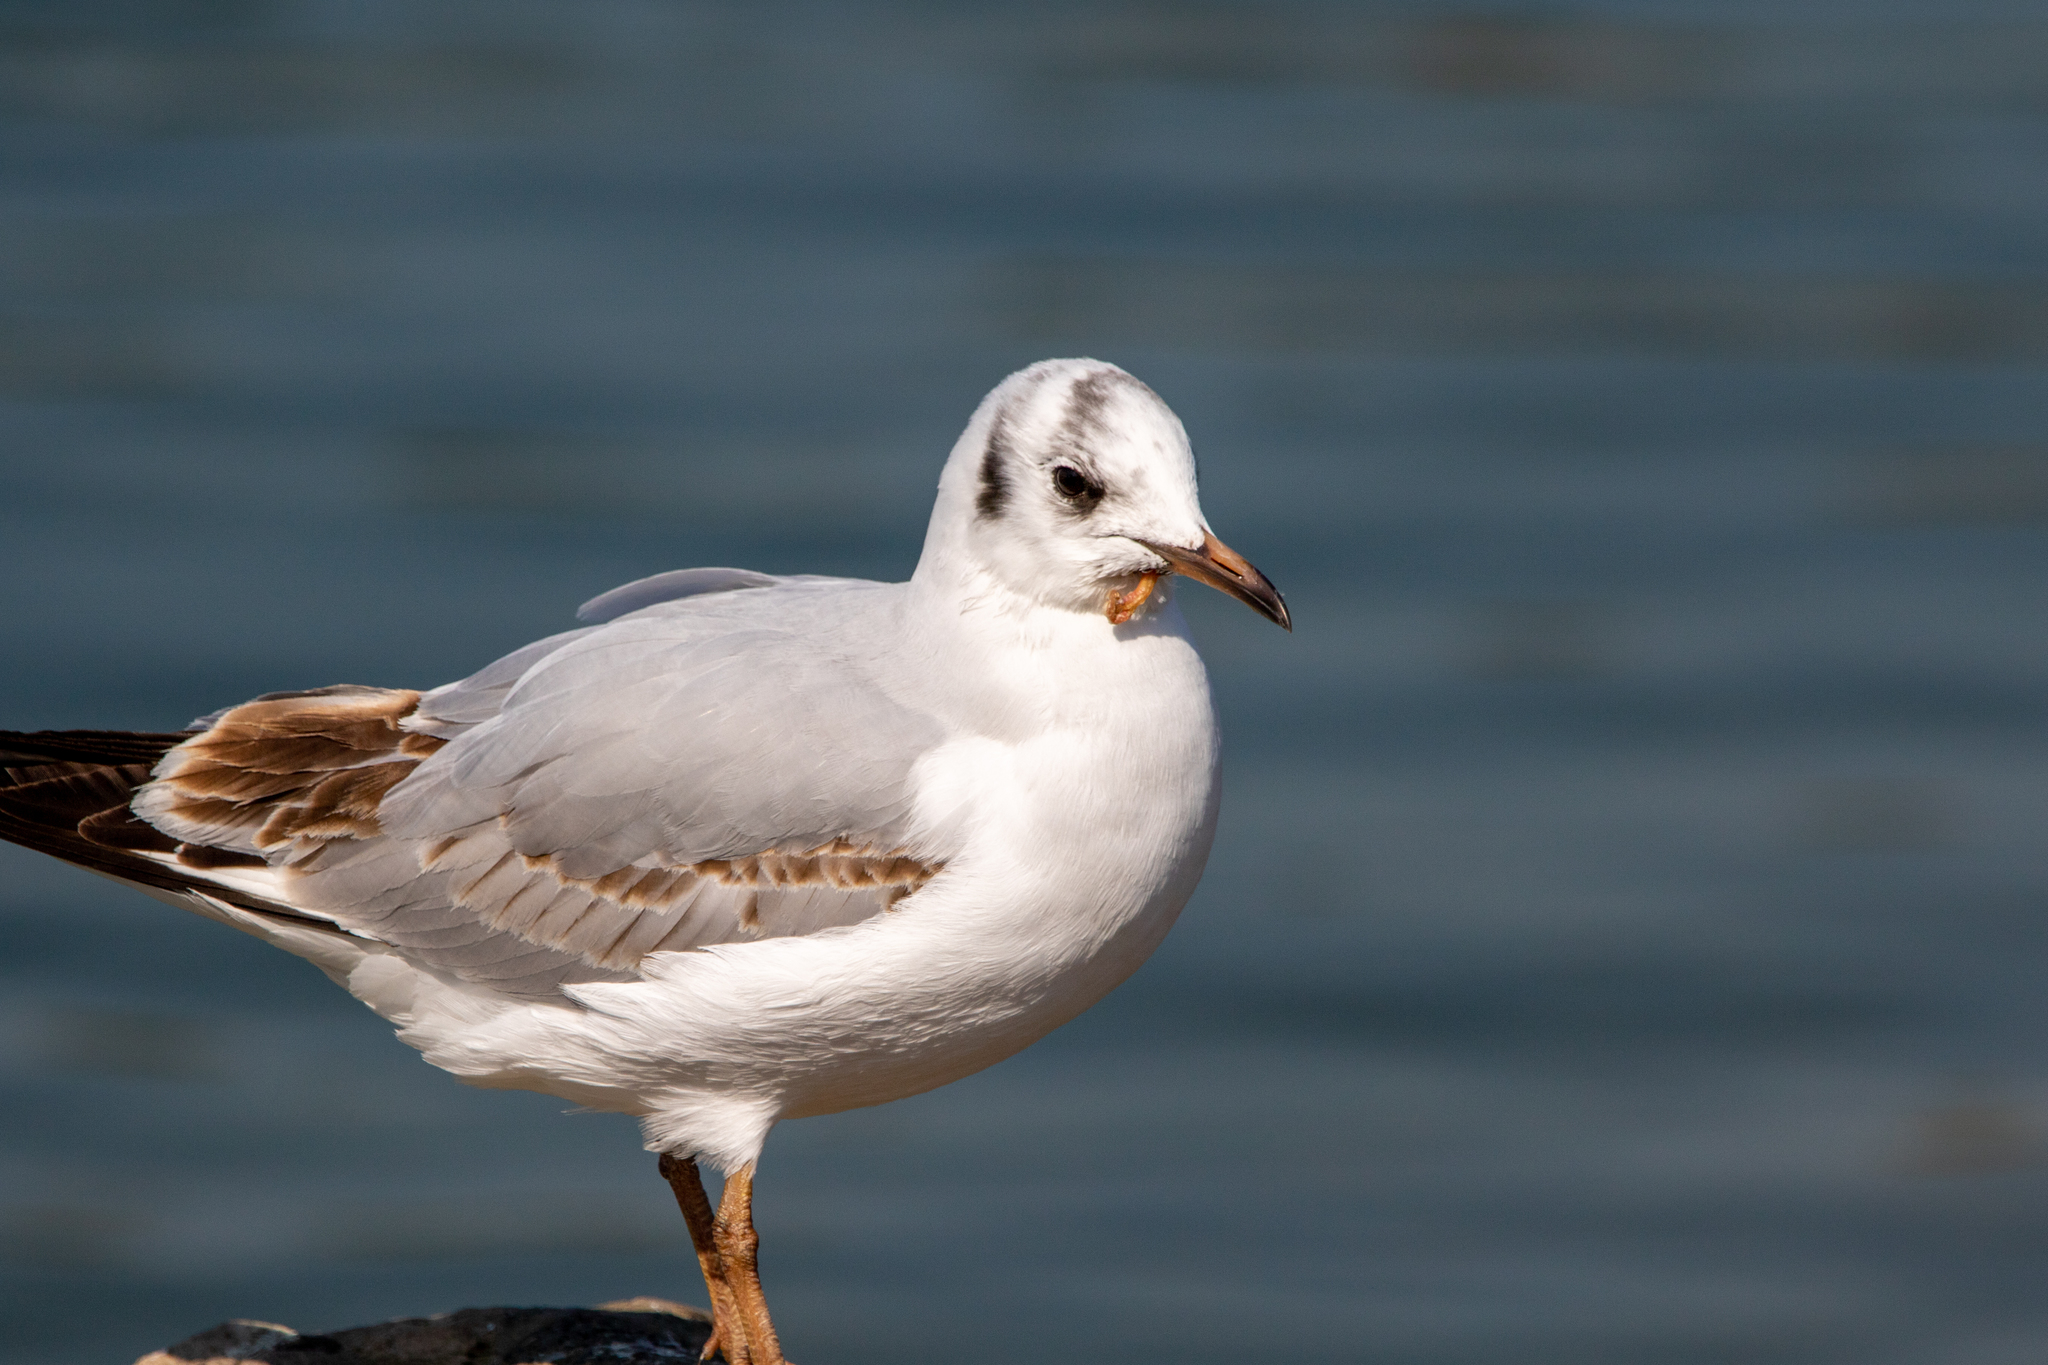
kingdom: Animalia
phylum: Chordata
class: Aves
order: Charadriiformes
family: Laridae
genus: Chroicocephalus
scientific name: Chroicocephalus ridibundus
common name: Black-headed gull
